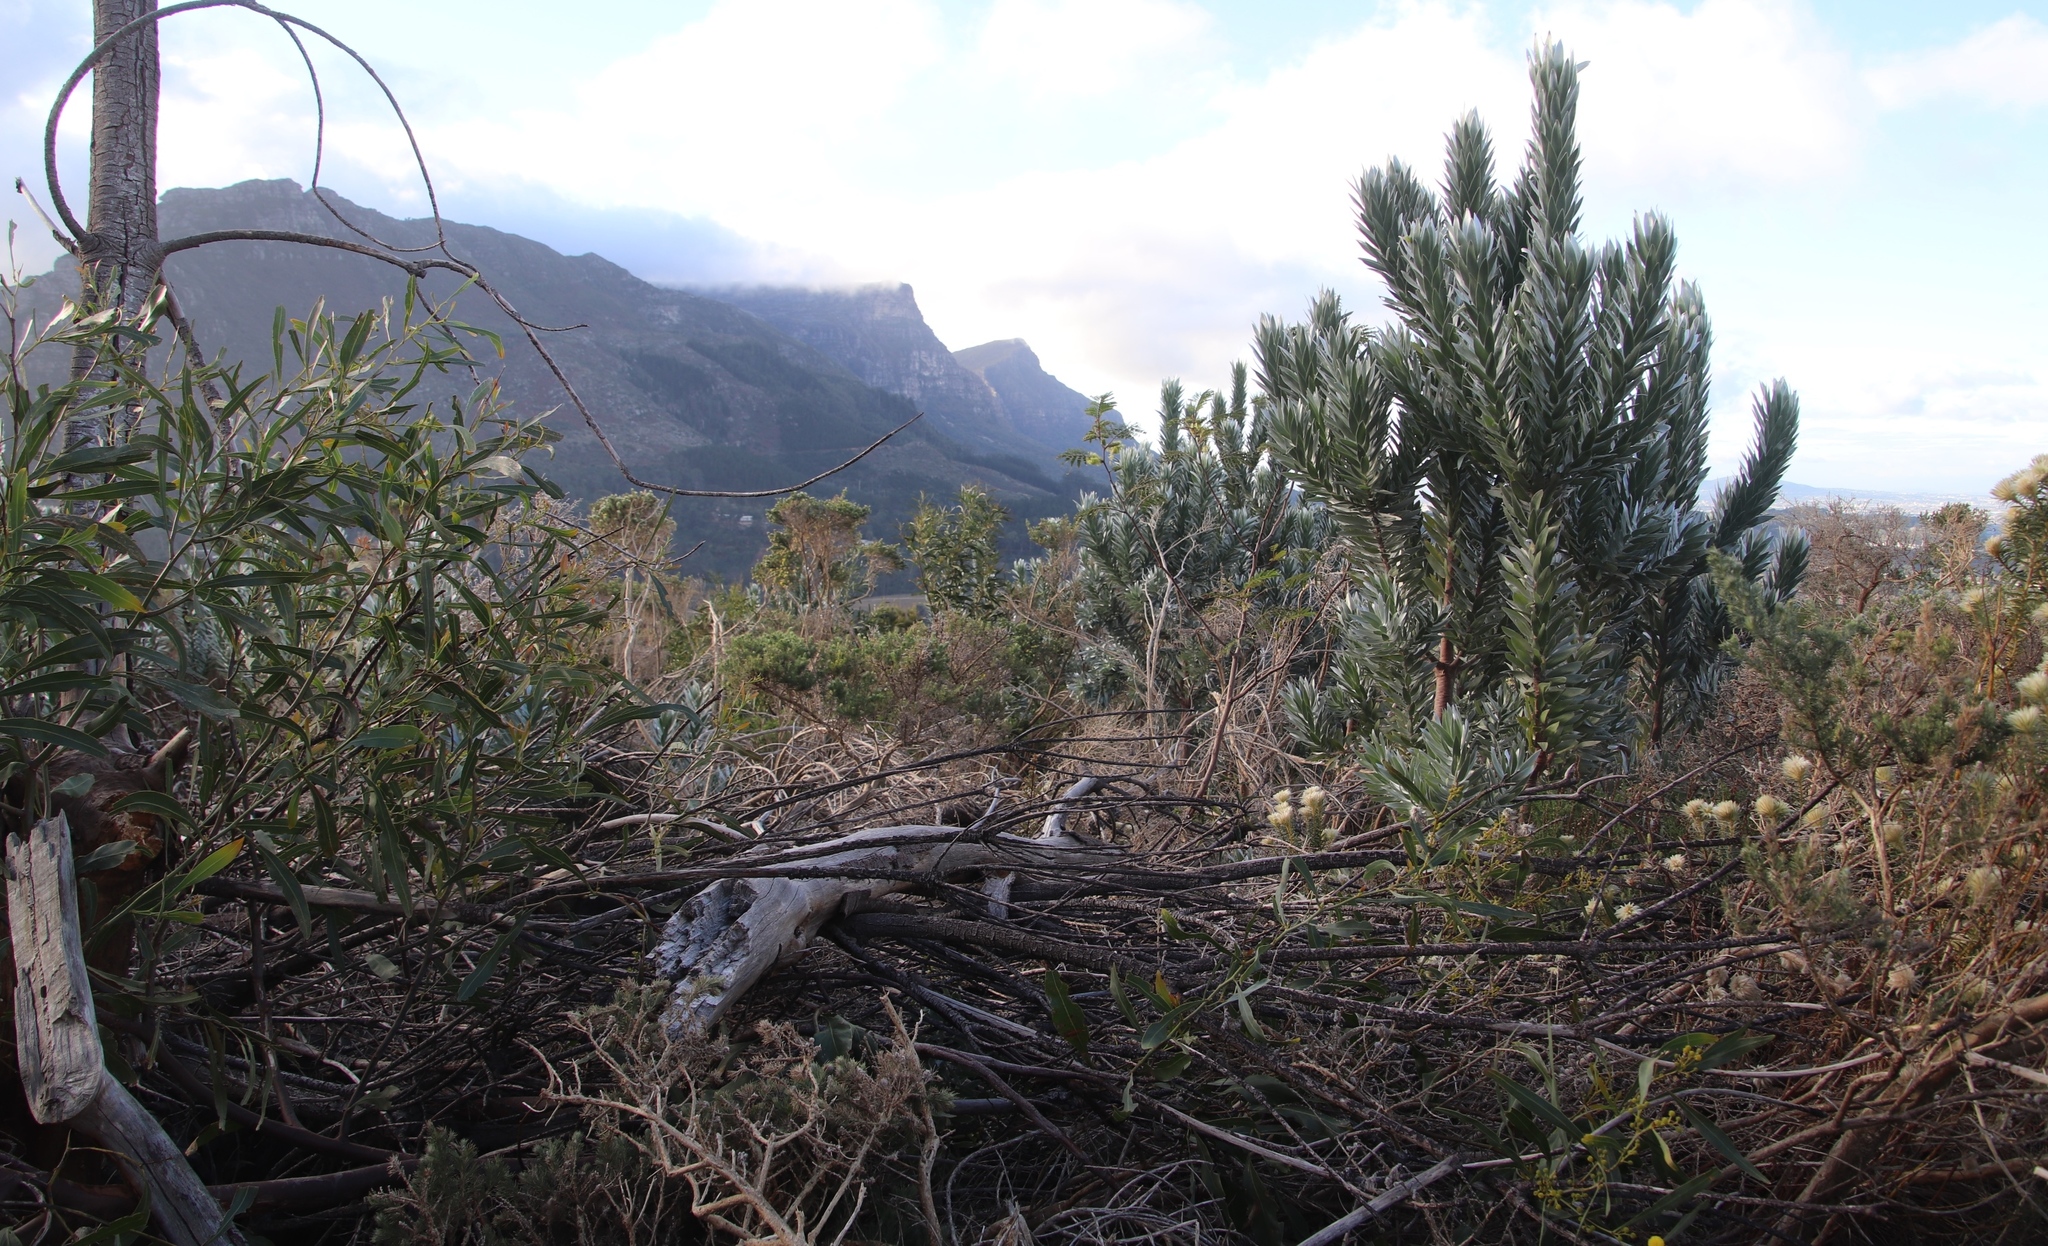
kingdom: Plantae
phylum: Tracheophyta
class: Magnoliopsida
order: Proteales
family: Proteaceae
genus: Leucadendron
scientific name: Leucadendron argenteum
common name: Cape silver tree
